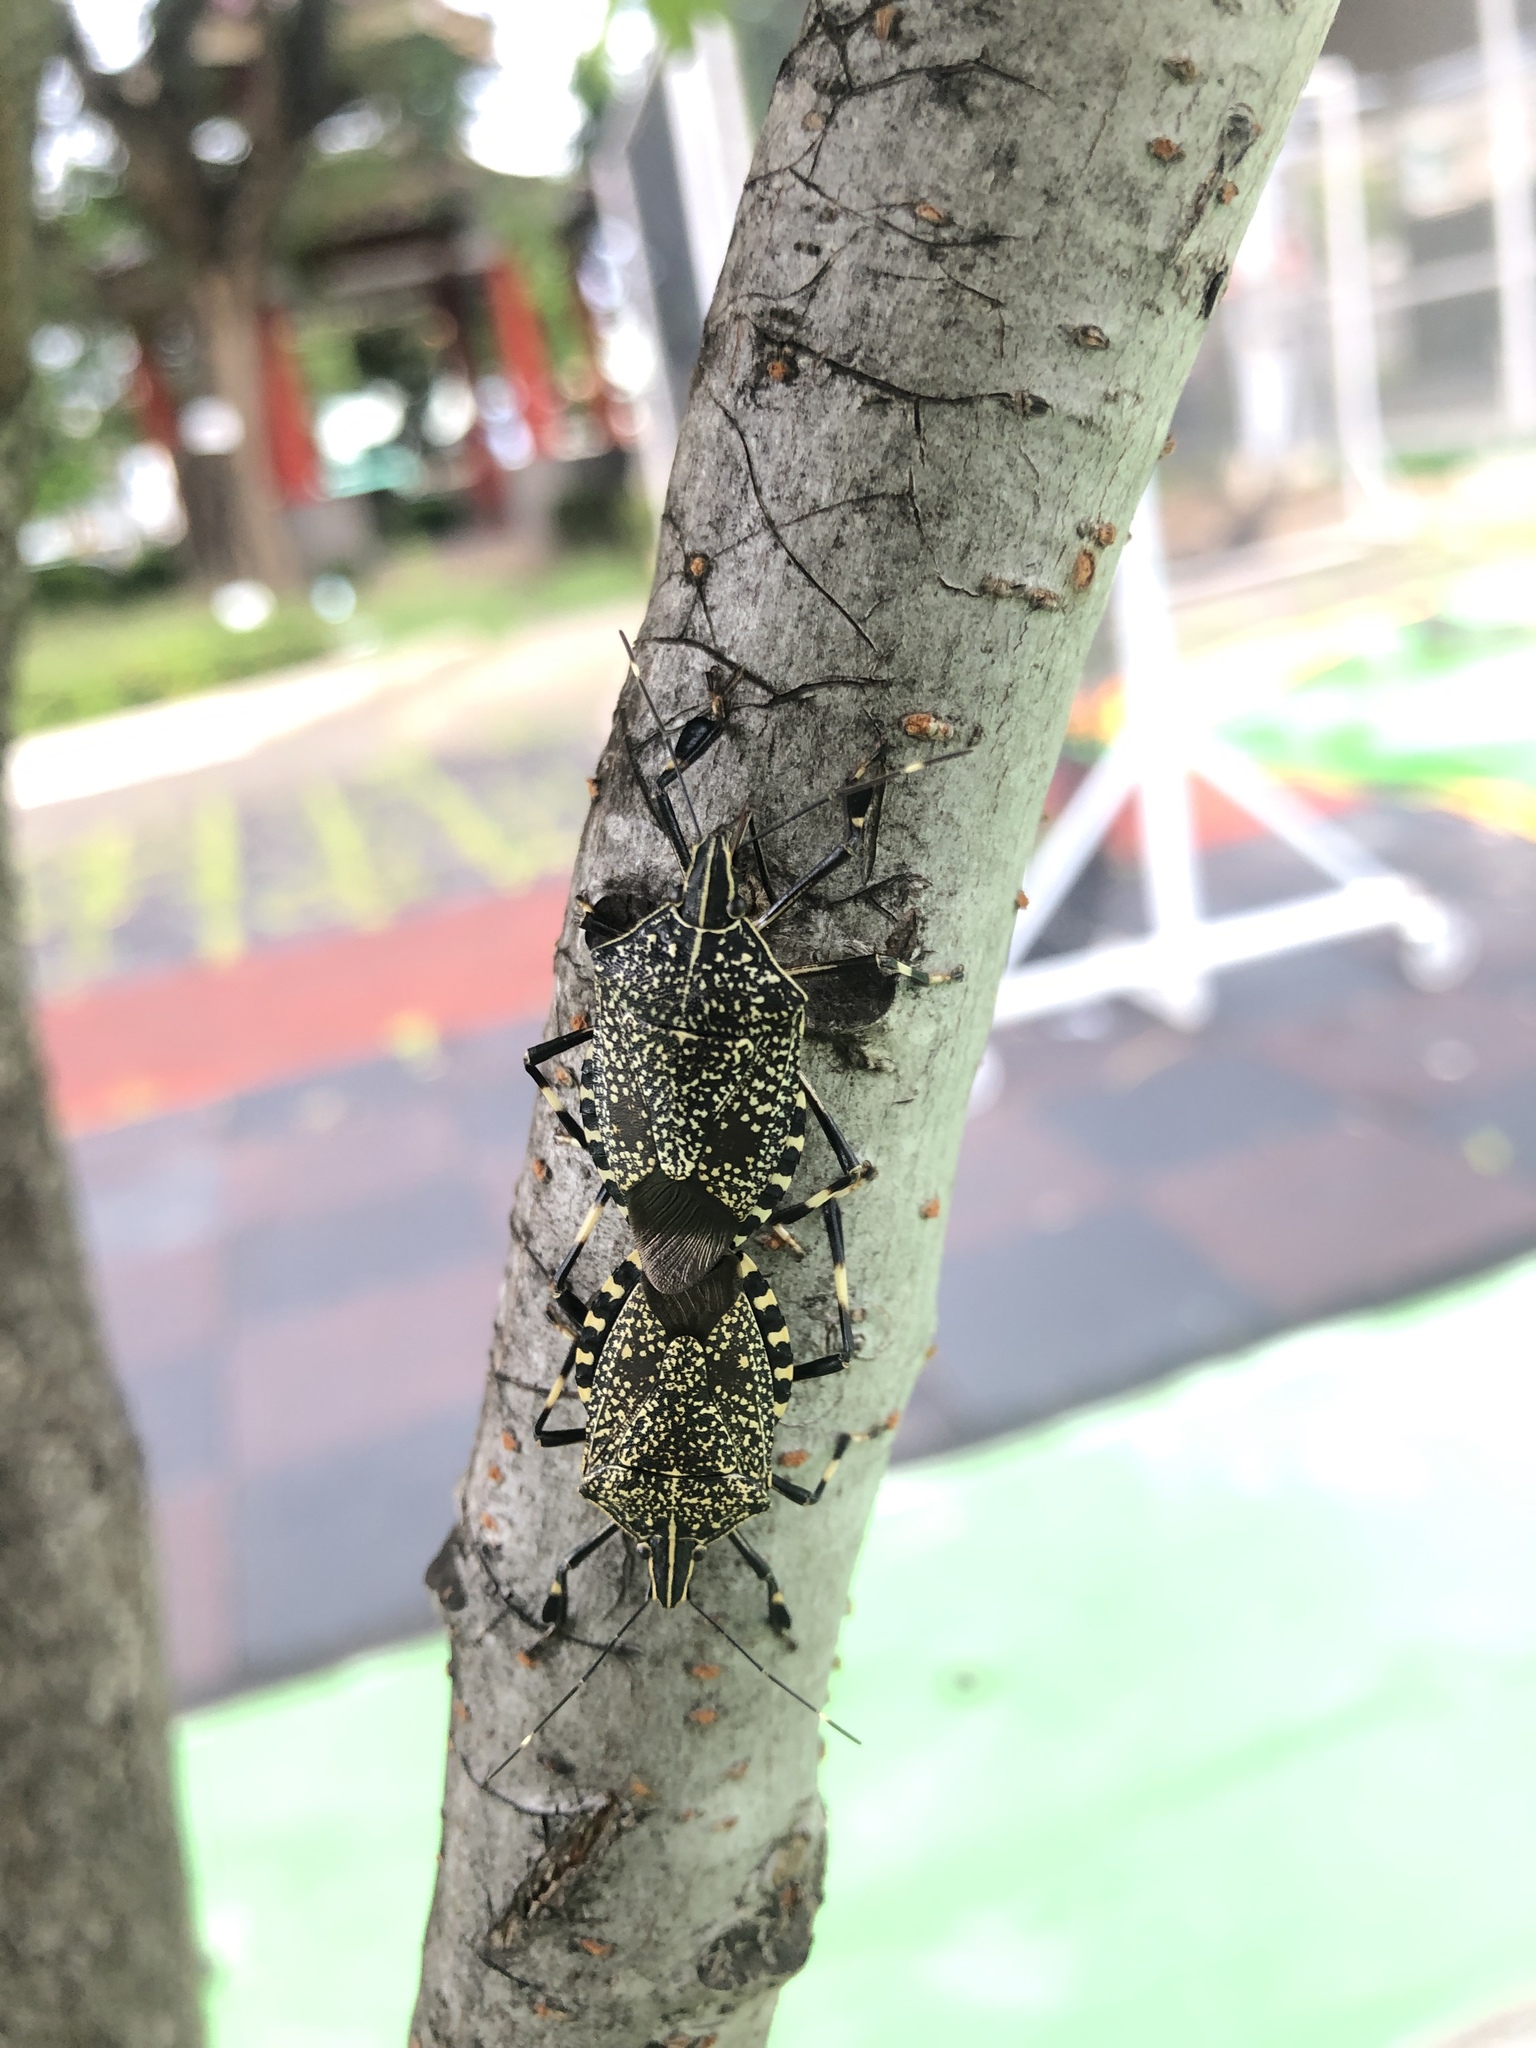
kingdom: Animalia
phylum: Arthropoda
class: Insecta
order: Hemiptera
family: Pentatomidae
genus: Erthesina
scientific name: Erthesina fullo
